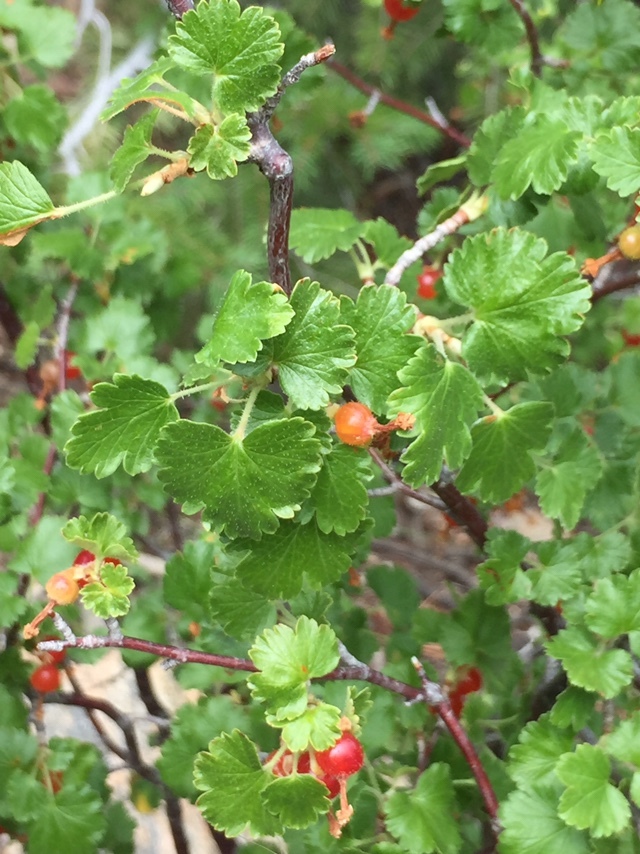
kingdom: Plantae
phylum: Tracheophyta
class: Magnoliopsida
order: Saxifragales
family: Grossulariaceae
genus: Ribes
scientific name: Ribes cereum
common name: Wax currant
